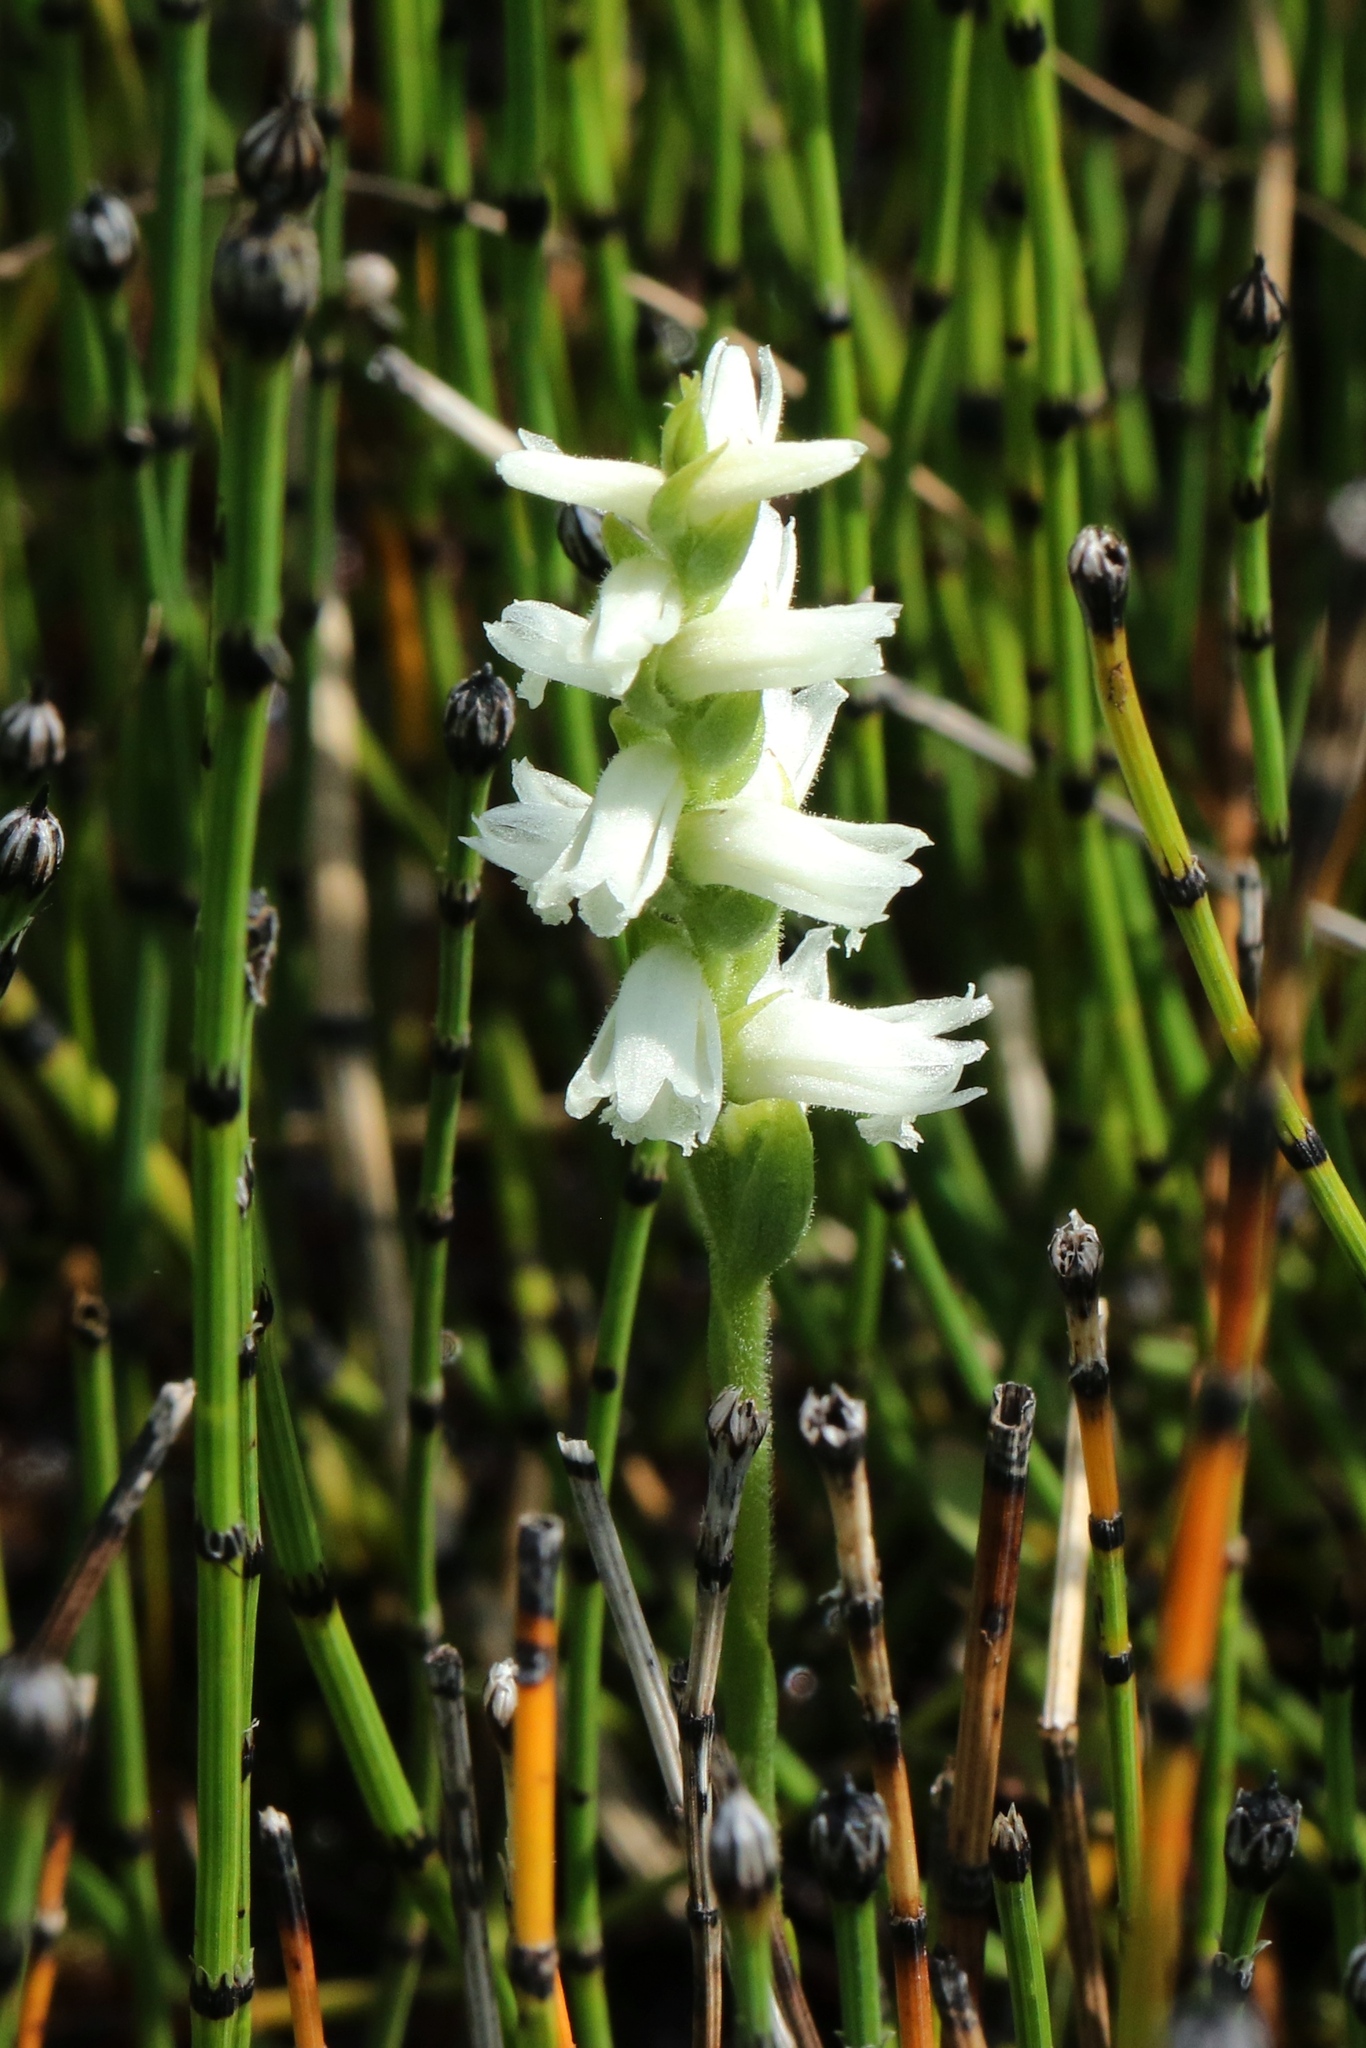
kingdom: Plantae
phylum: Tracheophyta
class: Liliopsida
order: Asparagales
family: Orchidaceae
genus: Spiranthes
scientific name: Spiranthes incurva
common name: Sphinx ladies'-tresses
